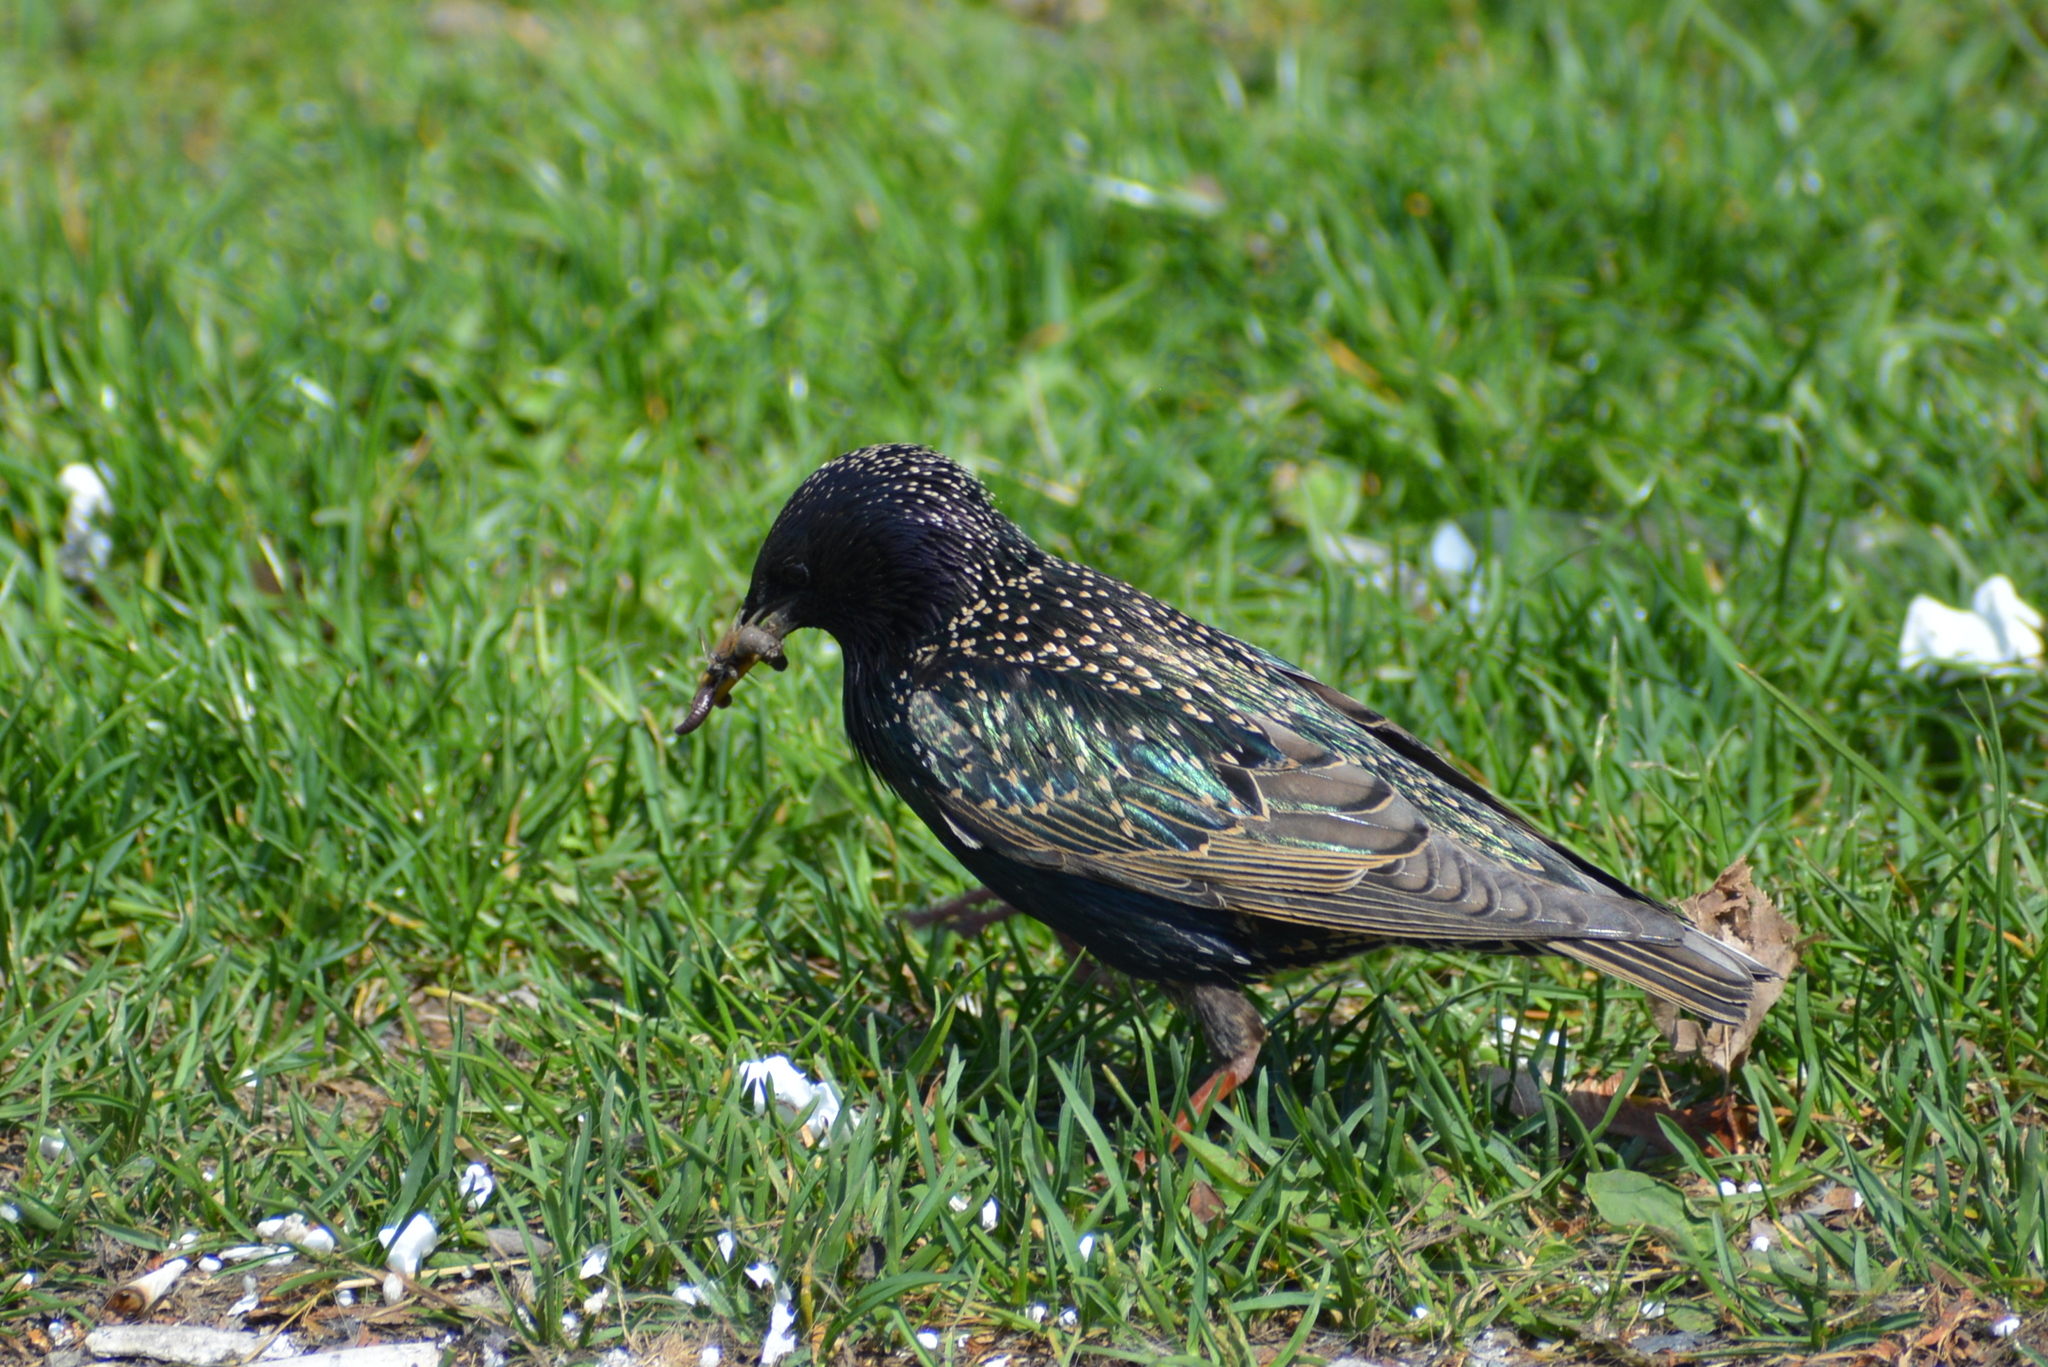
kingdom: Animalia
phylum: Chordata
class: Aves
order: Passeriformes
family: Sturnidae
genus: Sturnus
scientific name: Sturnus vulgaris
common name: Common starling
